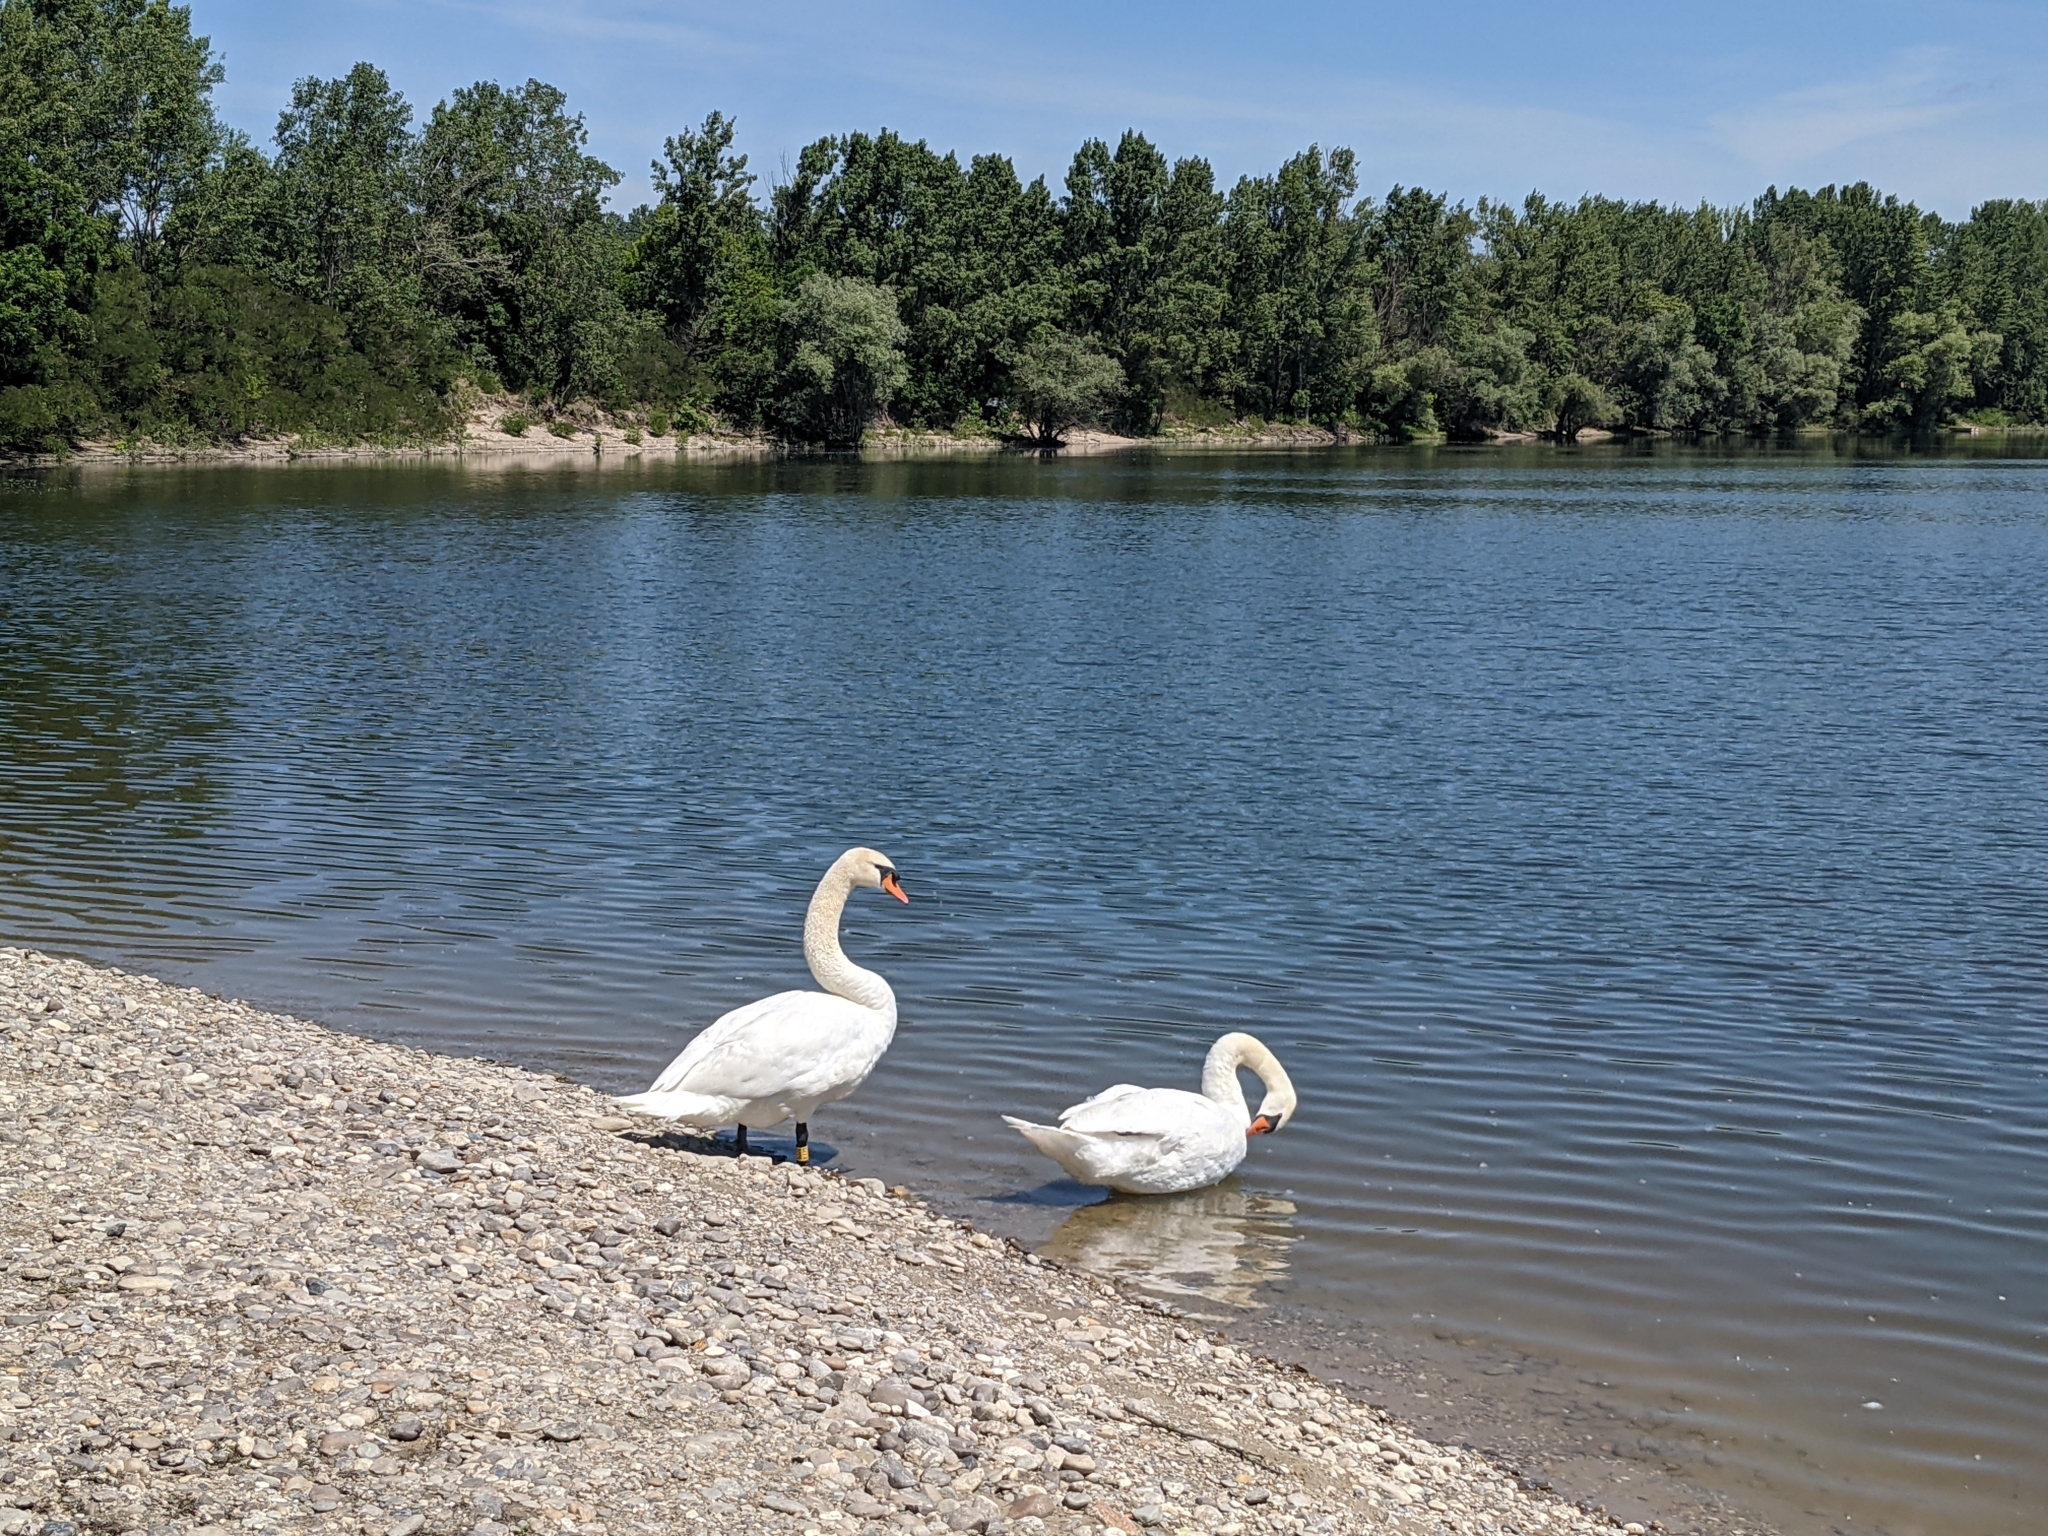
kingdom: Animalia
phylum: Chordata
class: Aves
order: Anseriformes
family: Anatidae
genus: Cygnus
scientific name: Cygnus olor
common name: Mute swan
